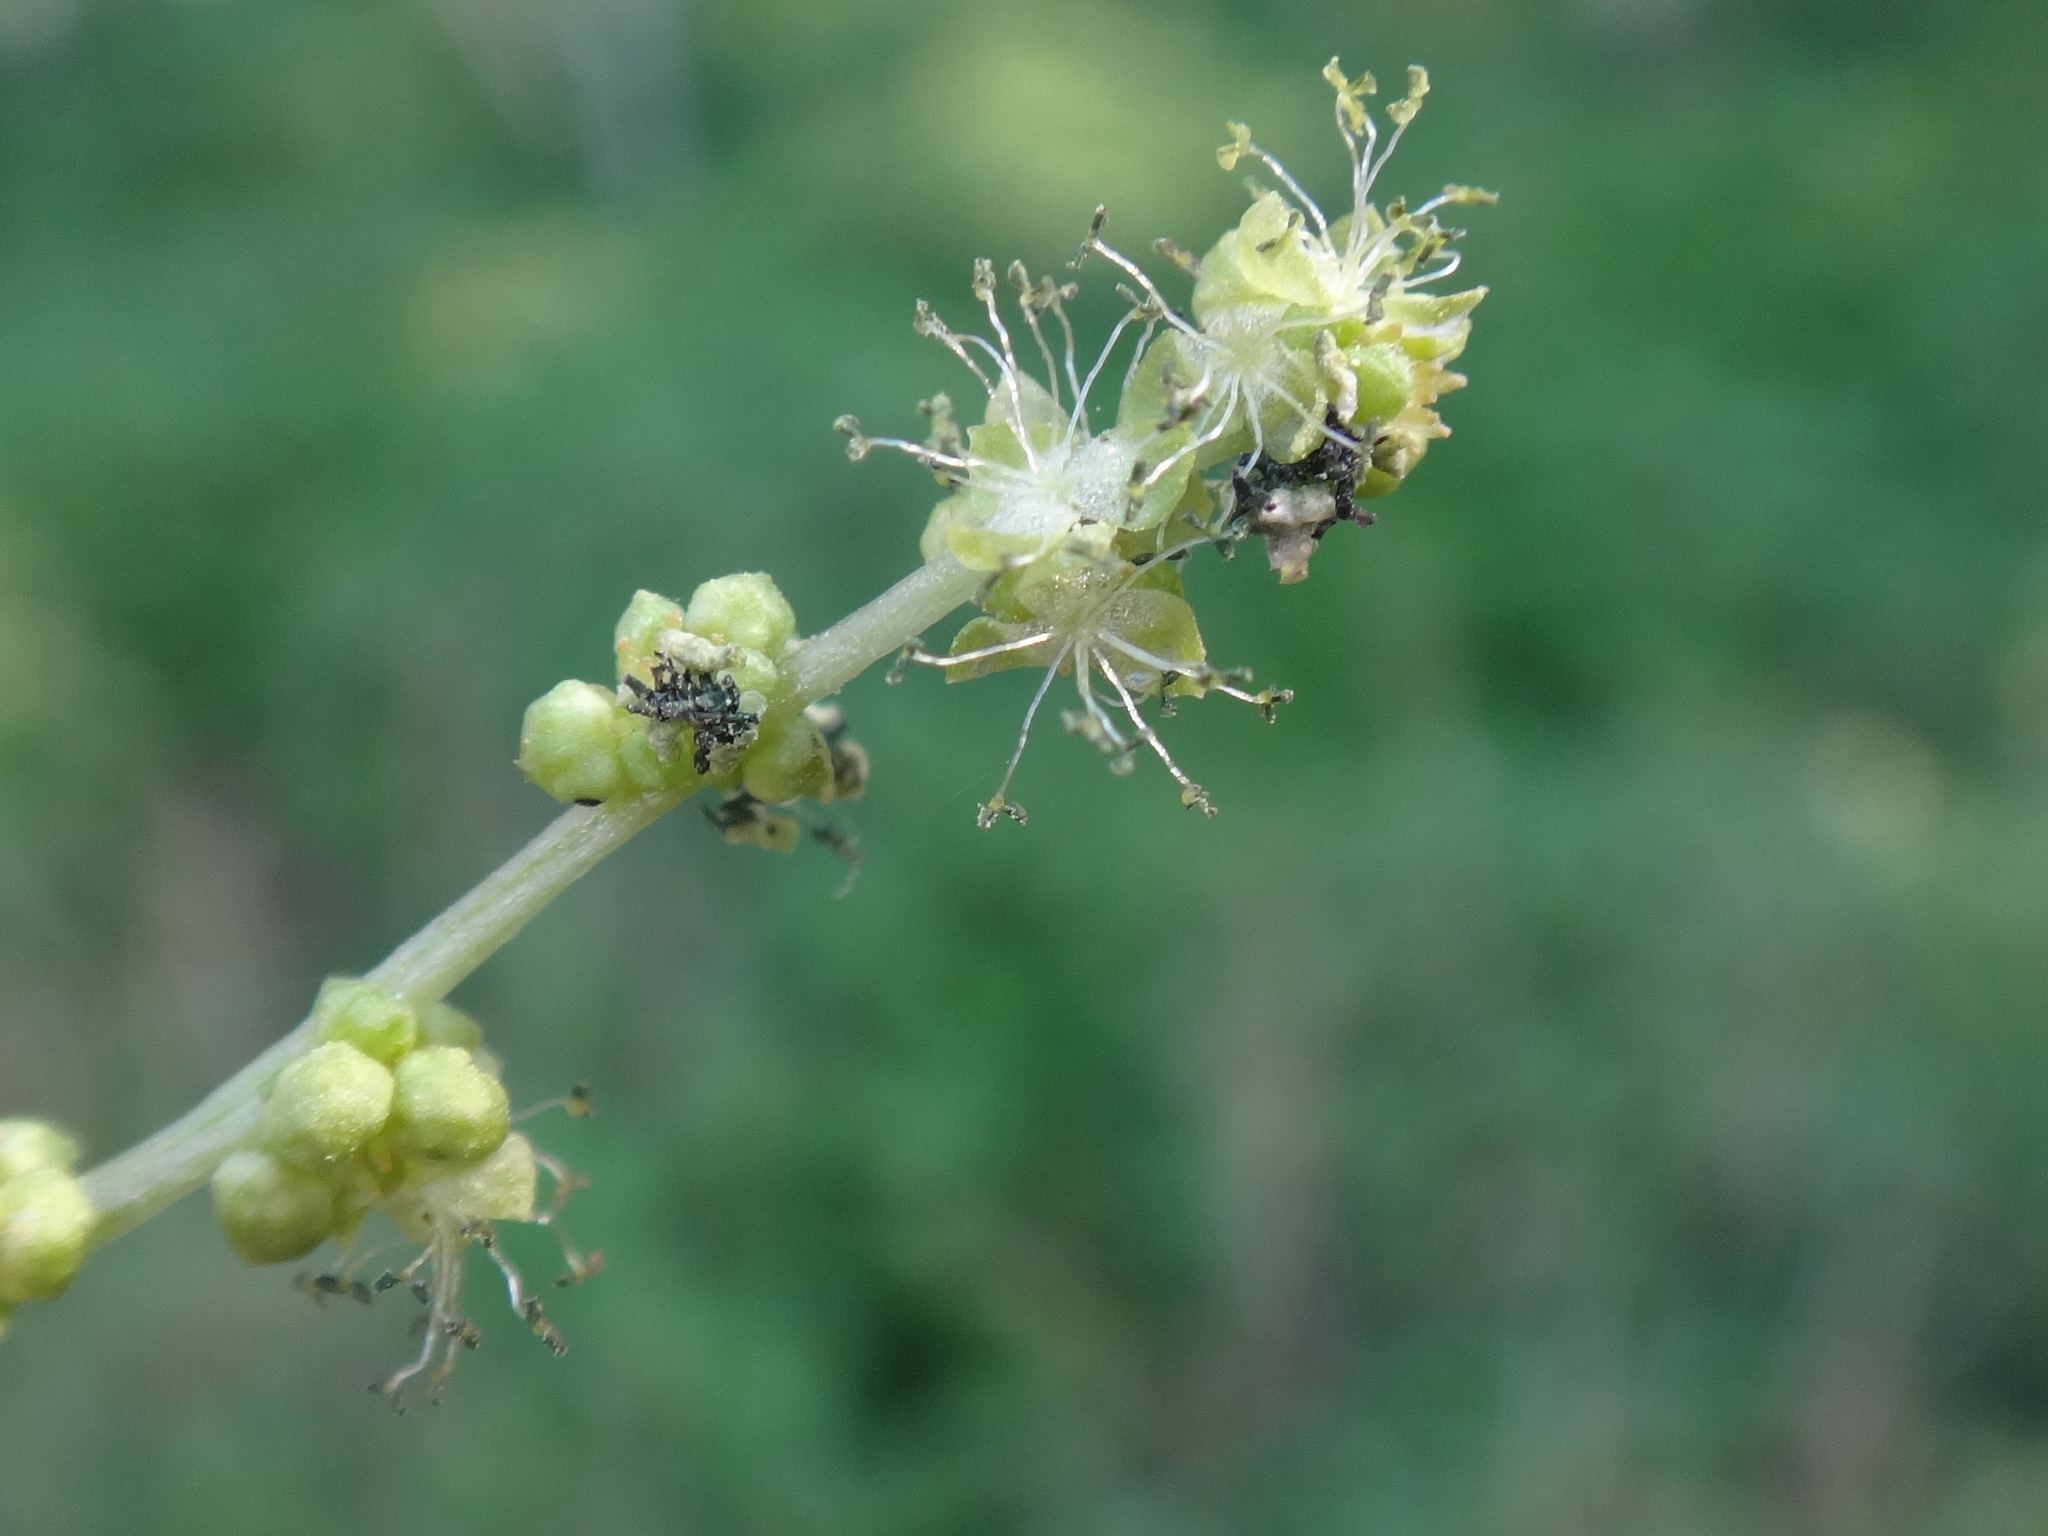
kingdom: Plantae
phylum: Tracheophyta
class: Magnoliopsida
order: Malpighiales
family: Euphorbiaceae
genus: Mercurialis
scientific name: Mercurialis annua
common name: Annual mercury
